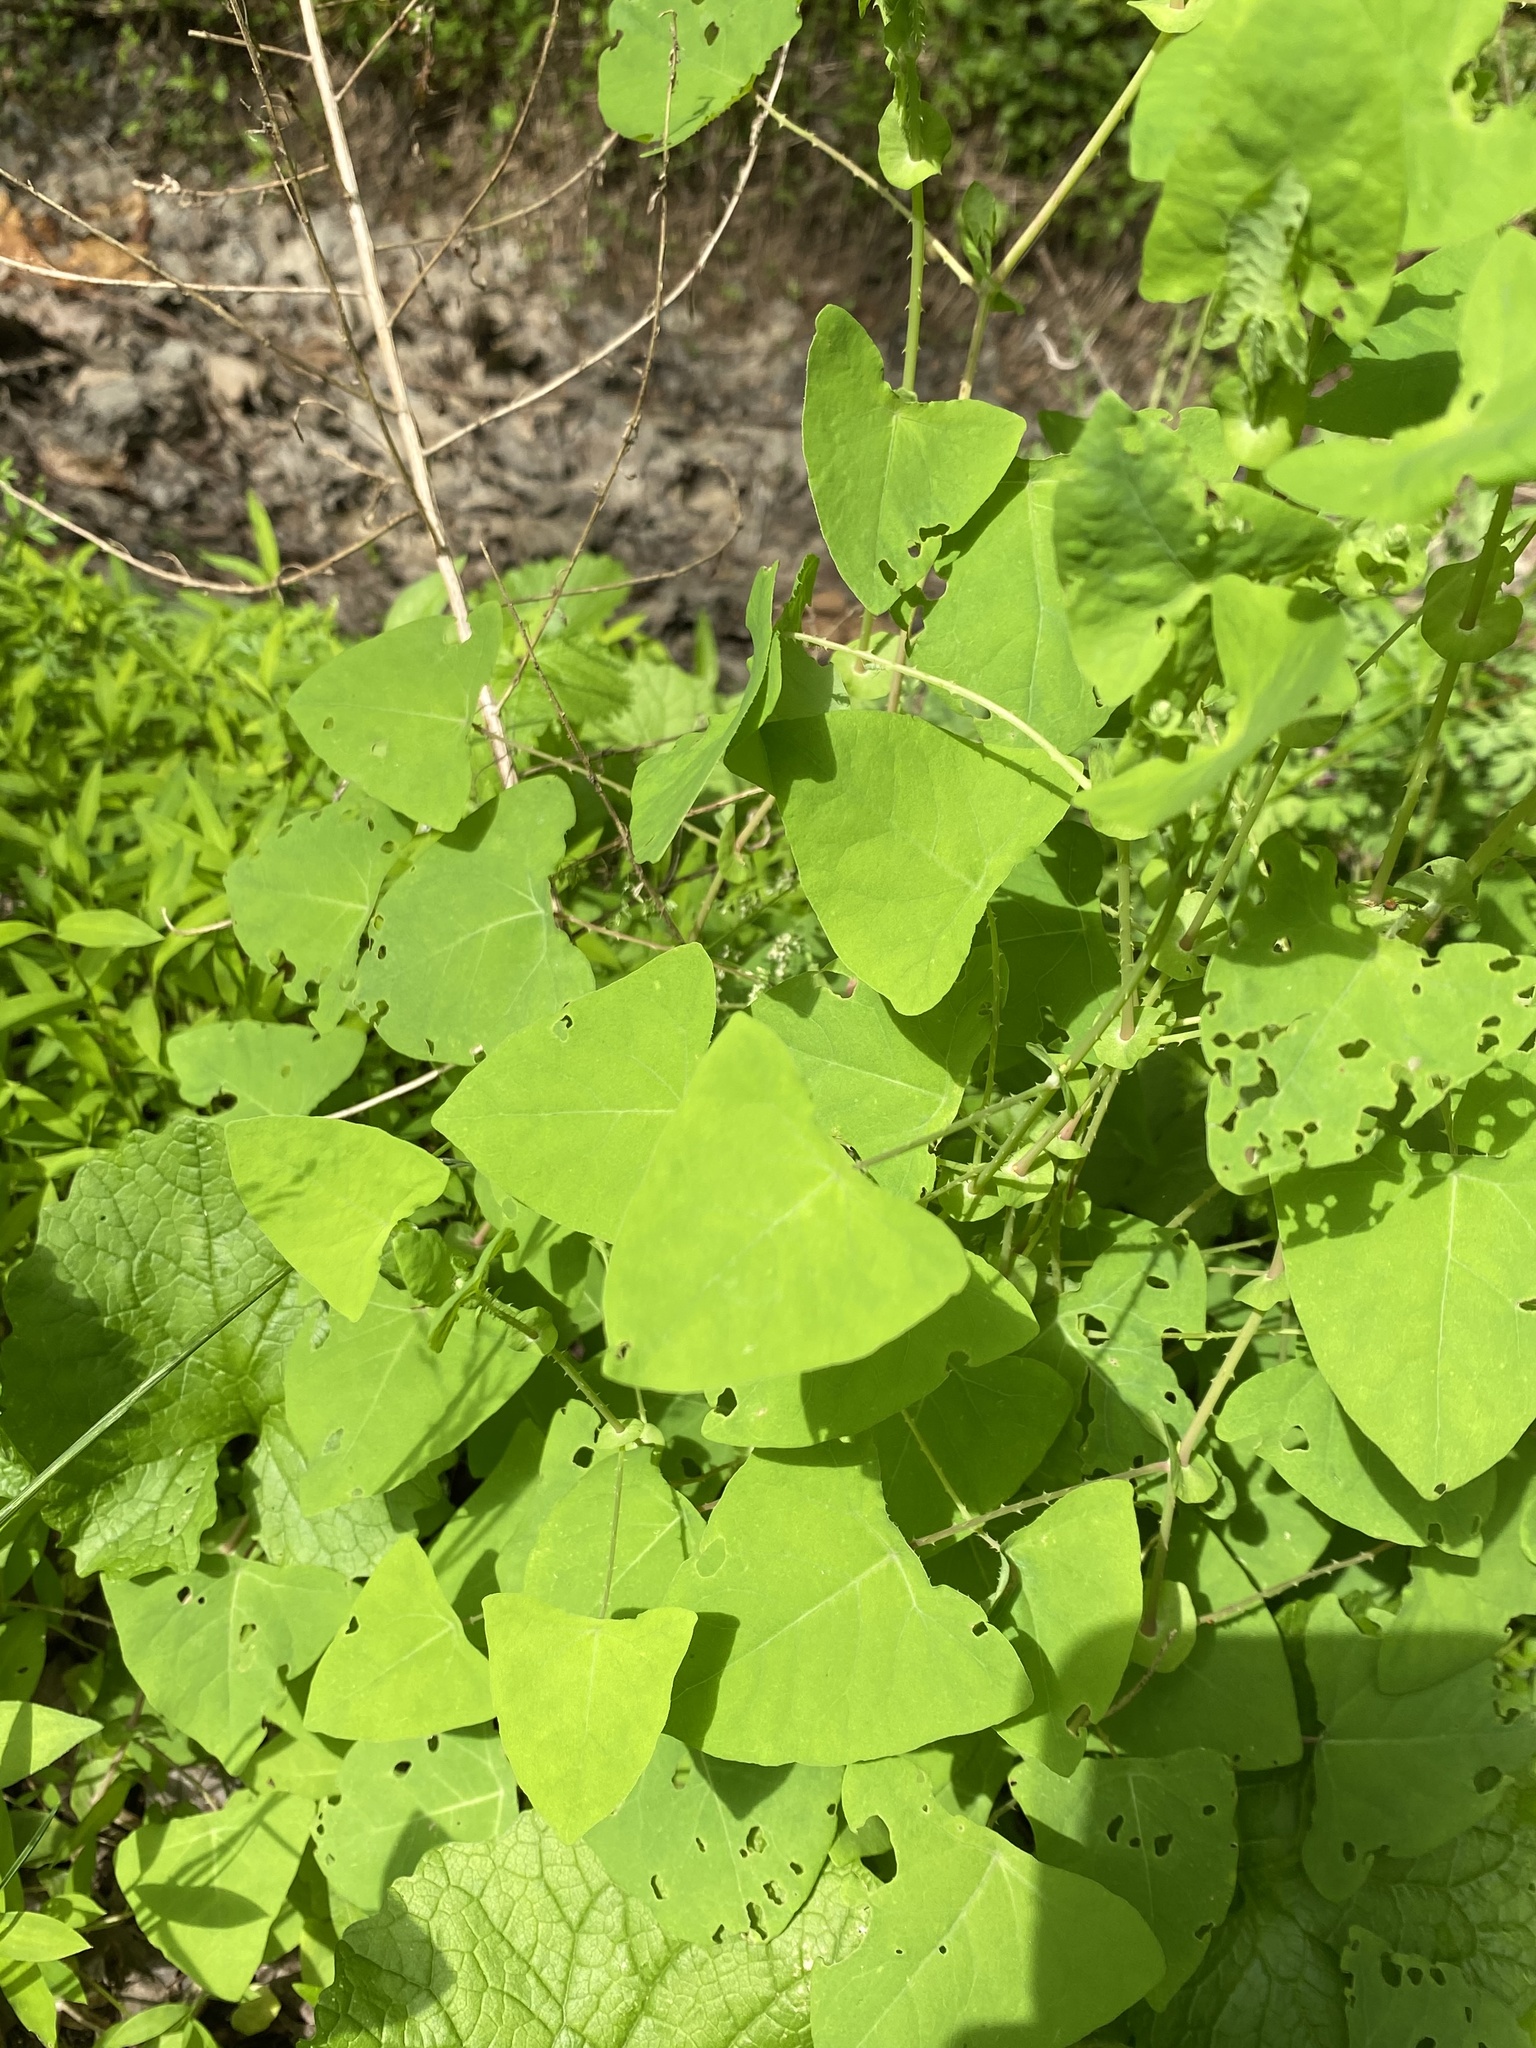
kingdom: Plantae
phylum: Tracheophyta
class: Magnoliopsida
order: Caryophyllales
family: Polygonaceae
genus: Persicaria
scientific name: Persicaria perfoliata
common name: Asiatic tearthumb
